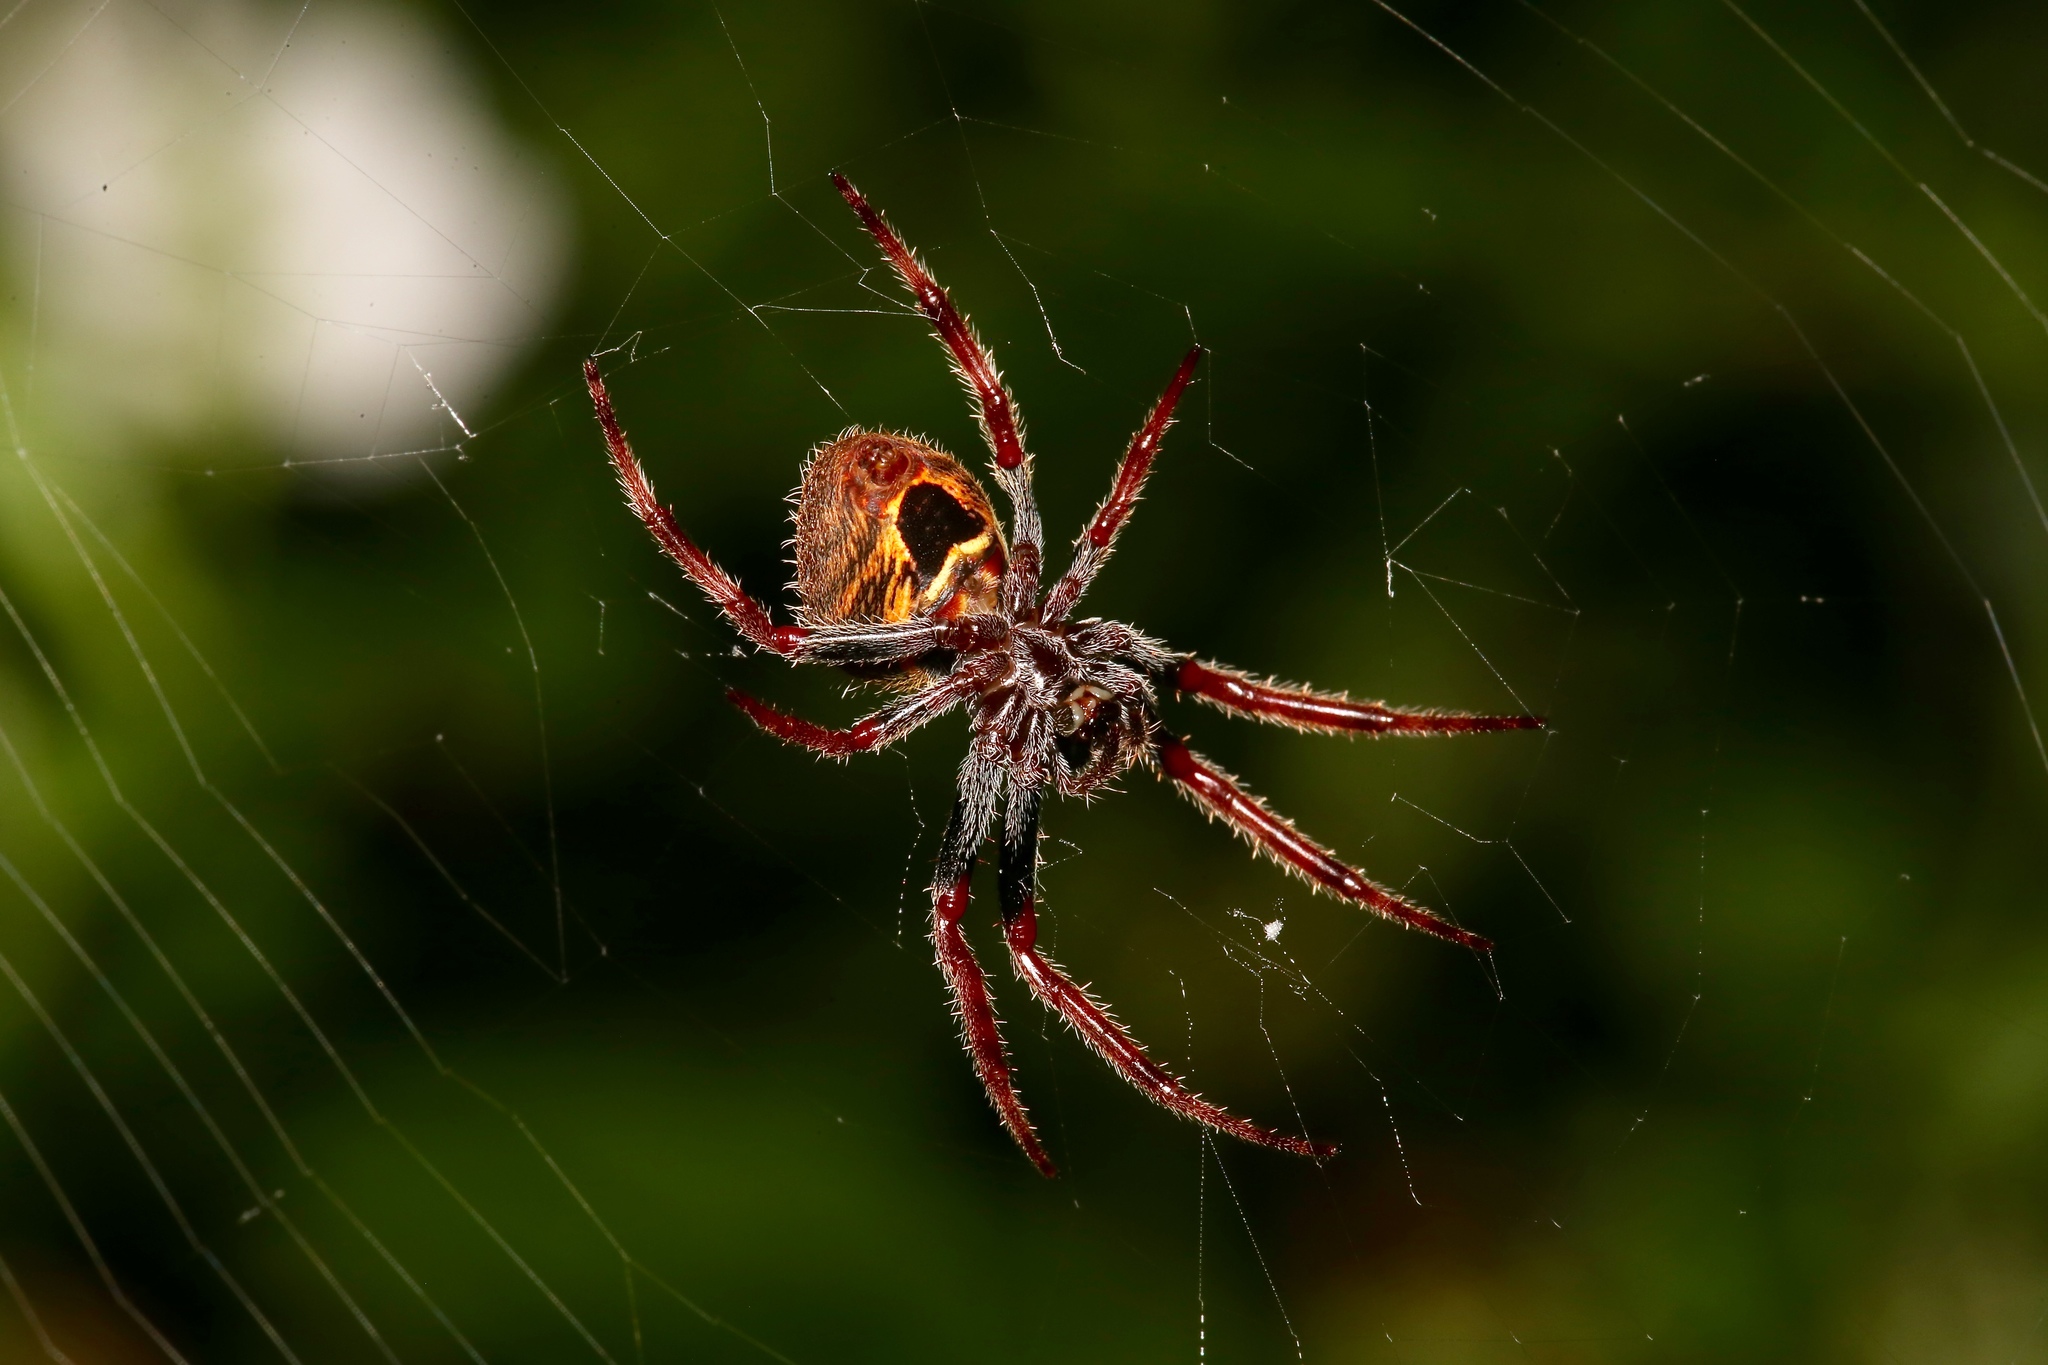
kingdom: Animalia
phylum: Arthropoda
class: Arachnida
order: Araneae
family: Araneidae
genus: Eriophora
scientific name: Eriophora ravilla
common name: Orb weavers
